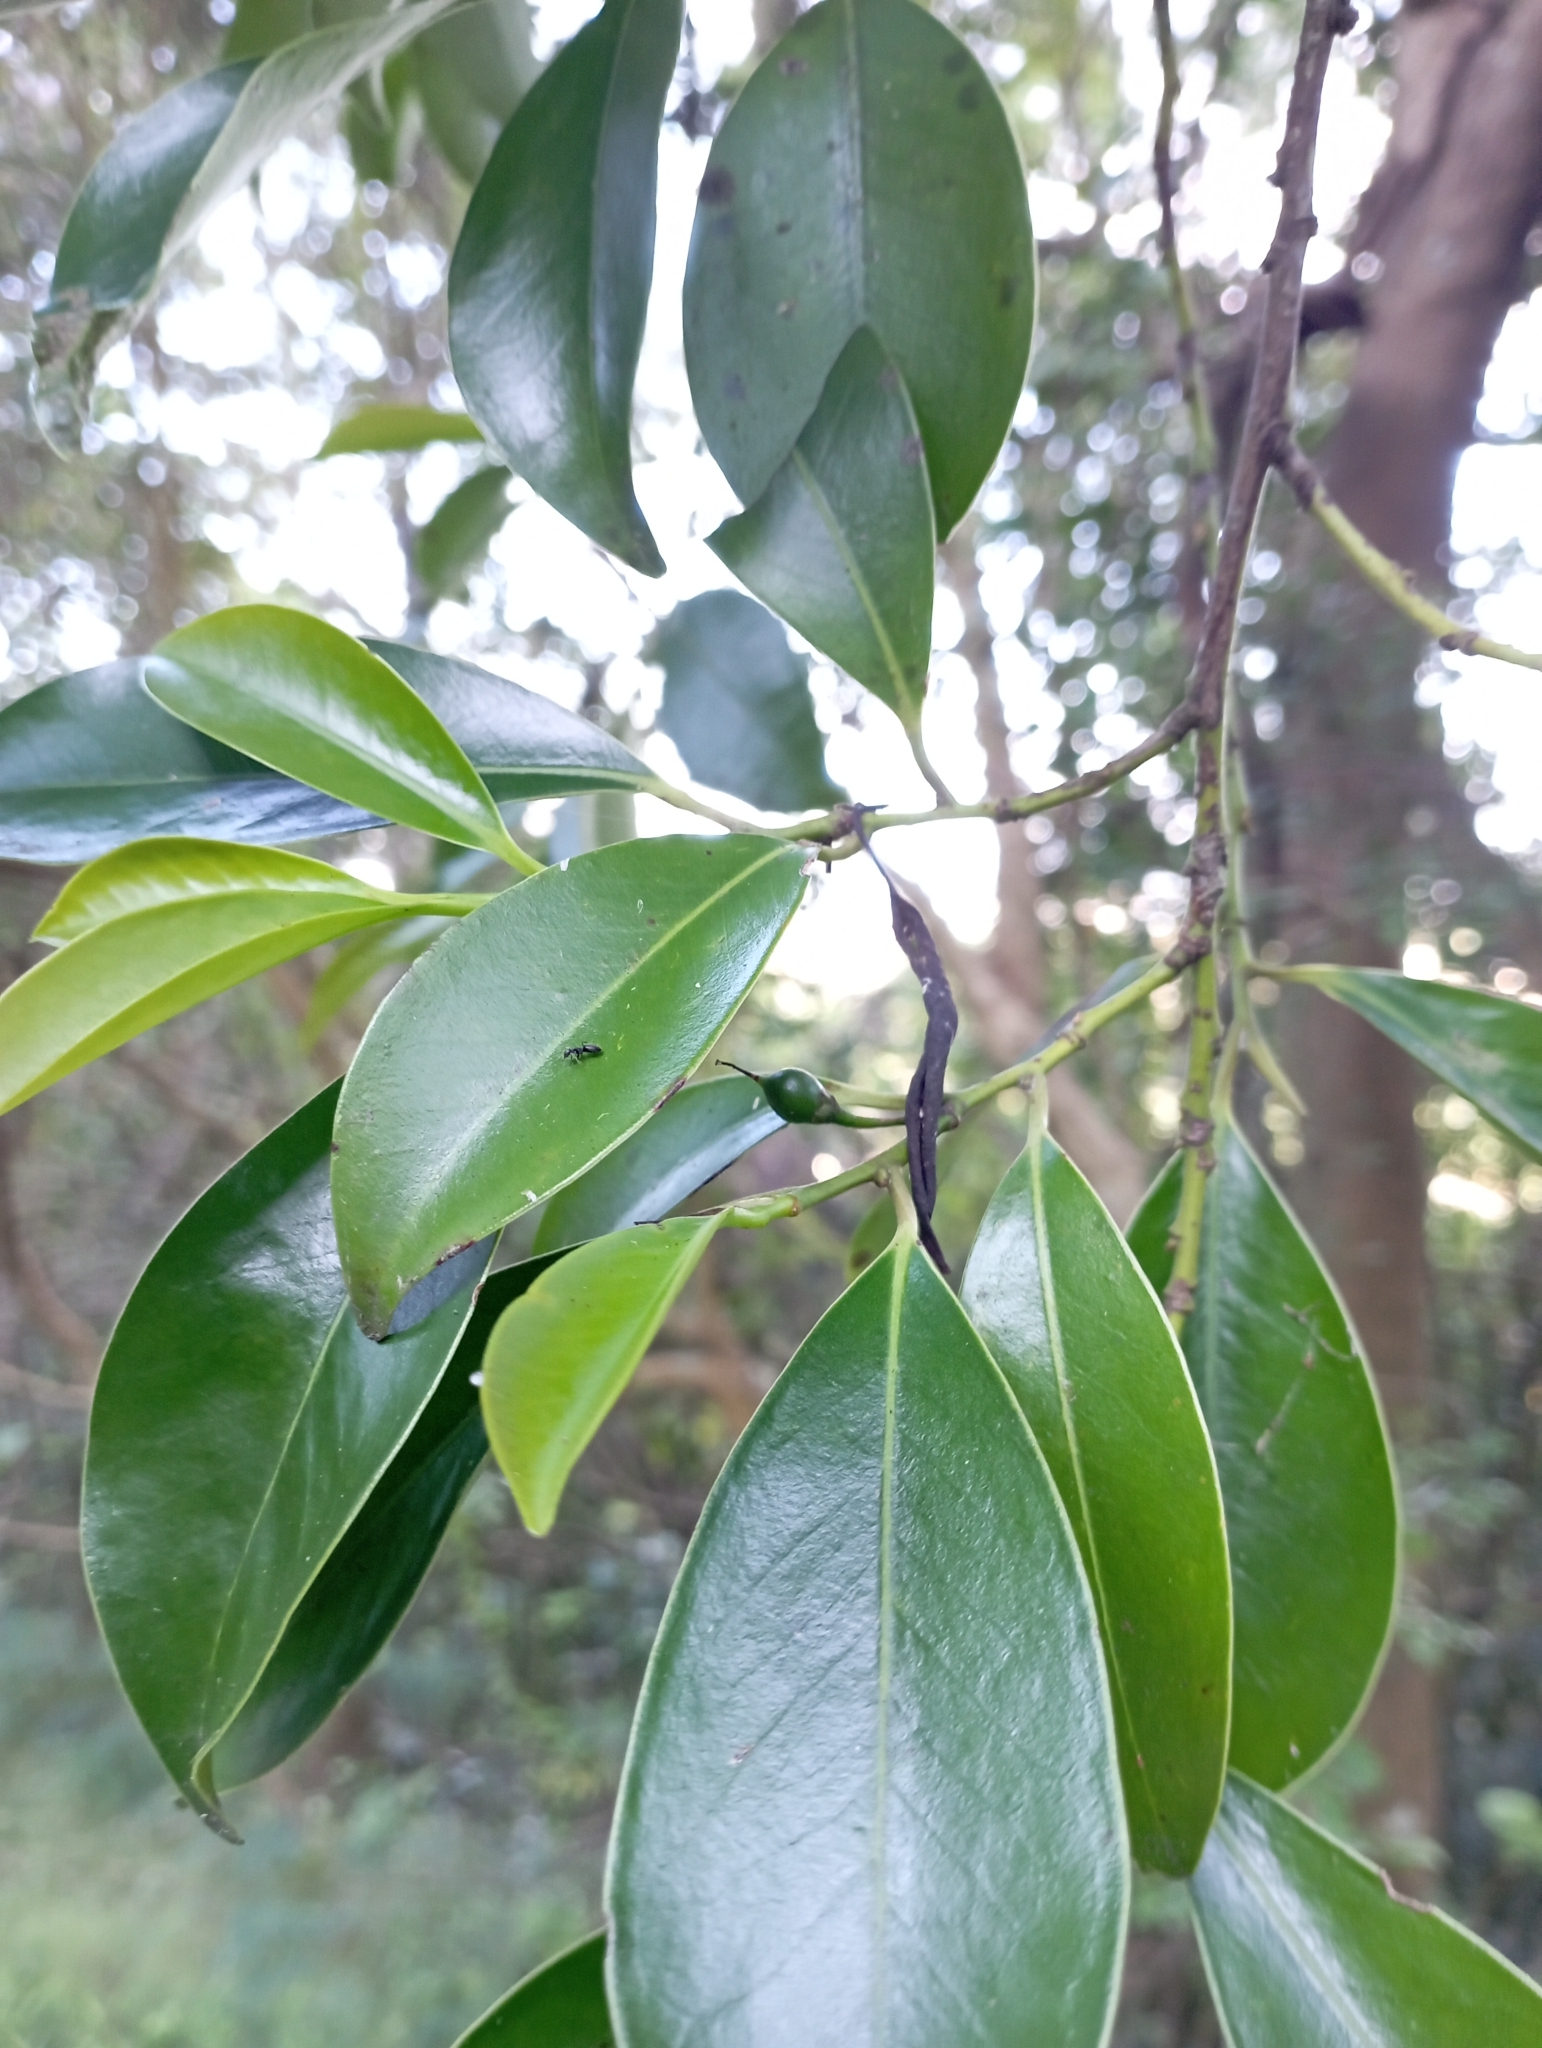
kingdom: Plantae
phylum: Tracheophyta
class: Magnoliopsida
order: Ericales
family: Pentaphylacaceae
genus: Cleyera
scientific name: Cleyera japonica
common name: Sakaki
